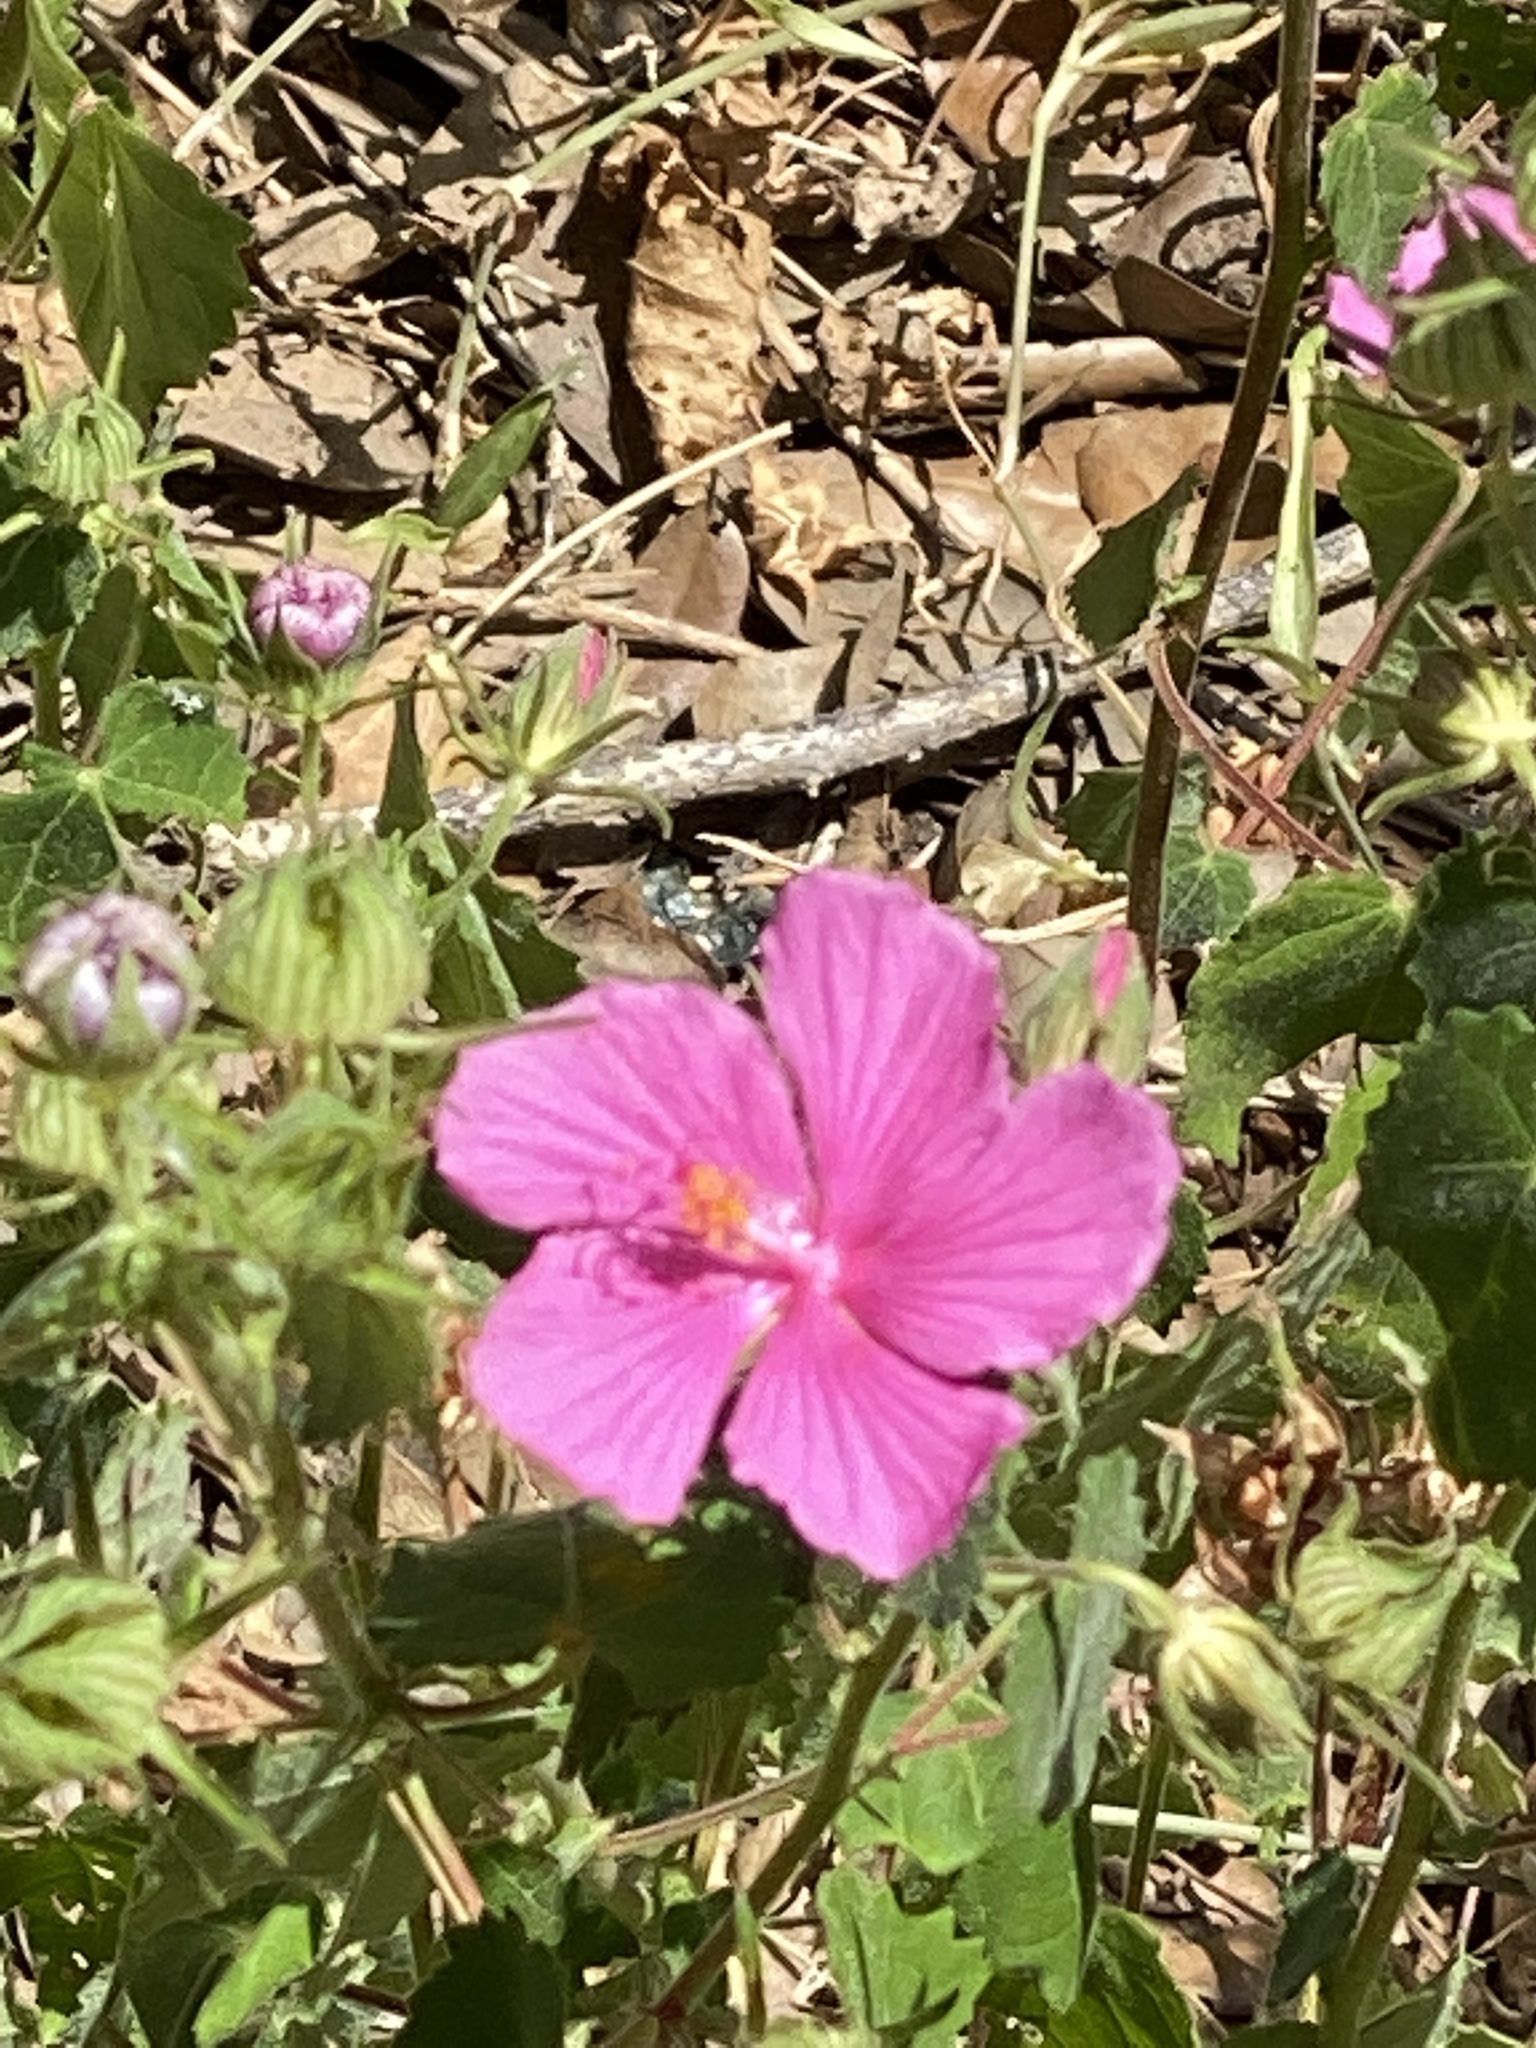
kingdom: Plantae
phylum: Tracheophyta
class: Magnoliopsida
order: Malvales
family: Malvaceae
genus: Pavonia
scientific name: Pavonia lasiopetala
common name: Texas swamp-mallow
